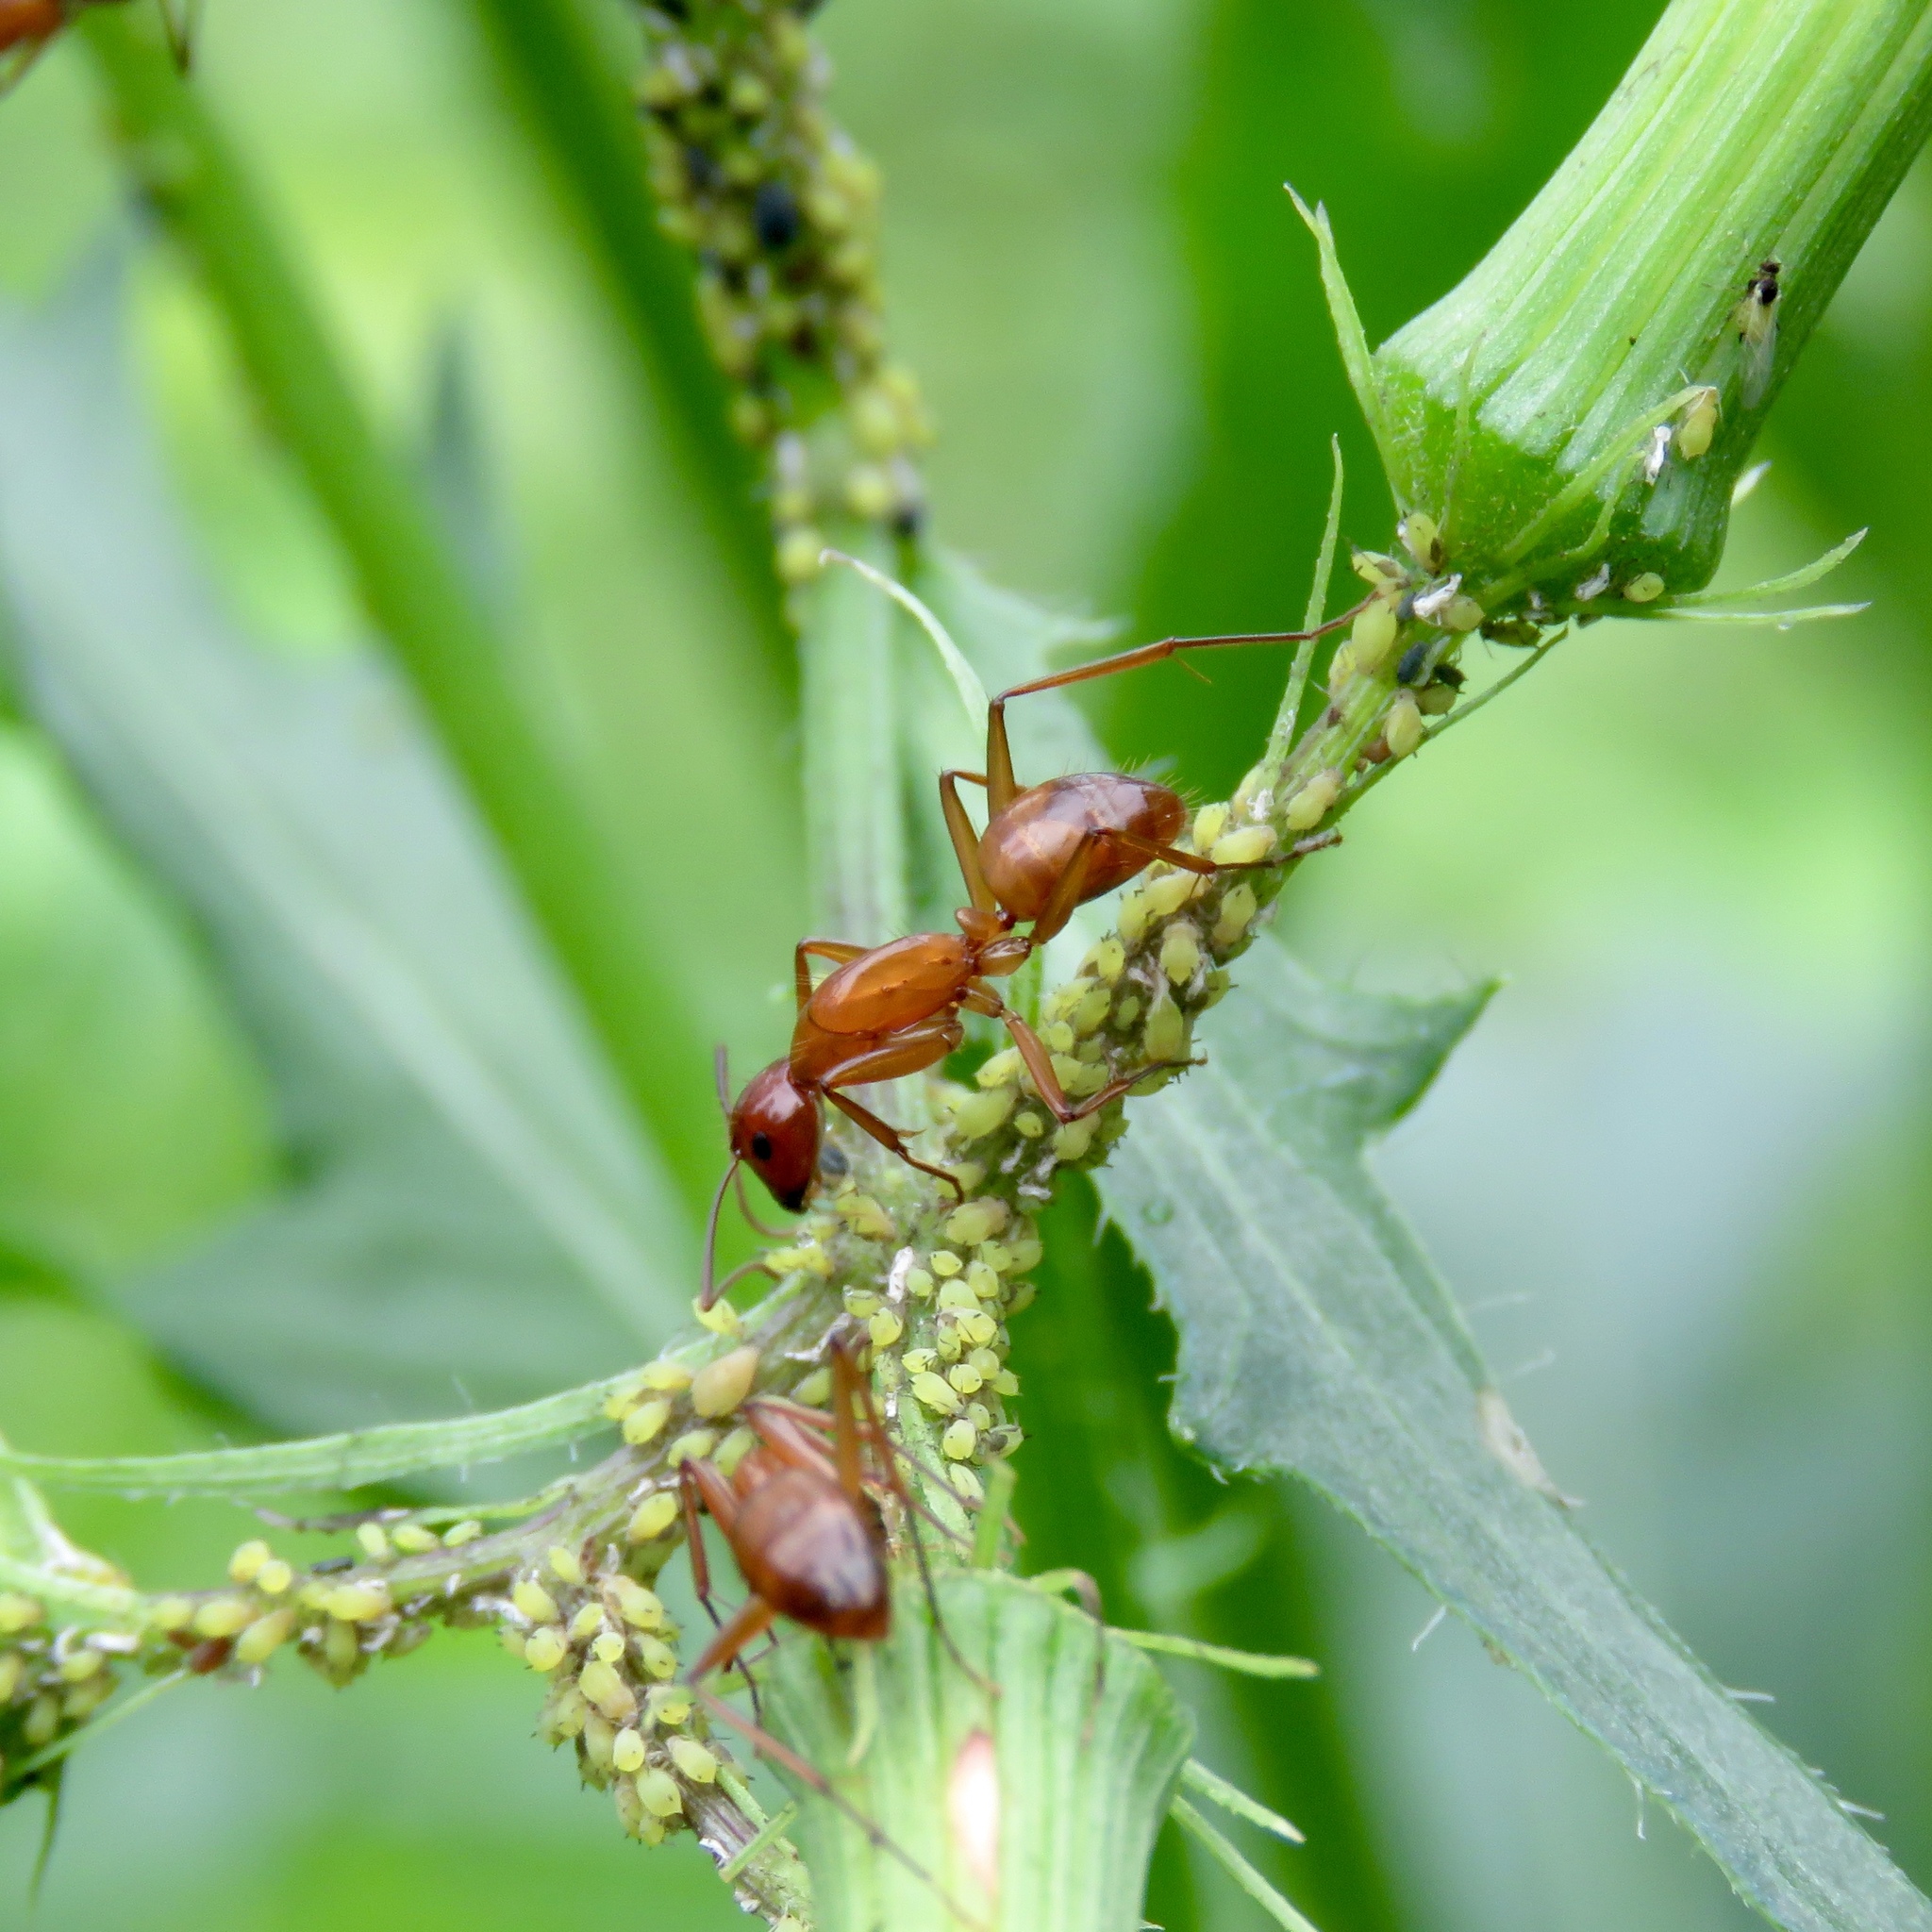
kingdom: Animalia
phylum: Arthropoda
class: Insecta
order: Hymenoptera
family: Formicidae
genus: Camponotus
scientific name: Camponotus castaneus
